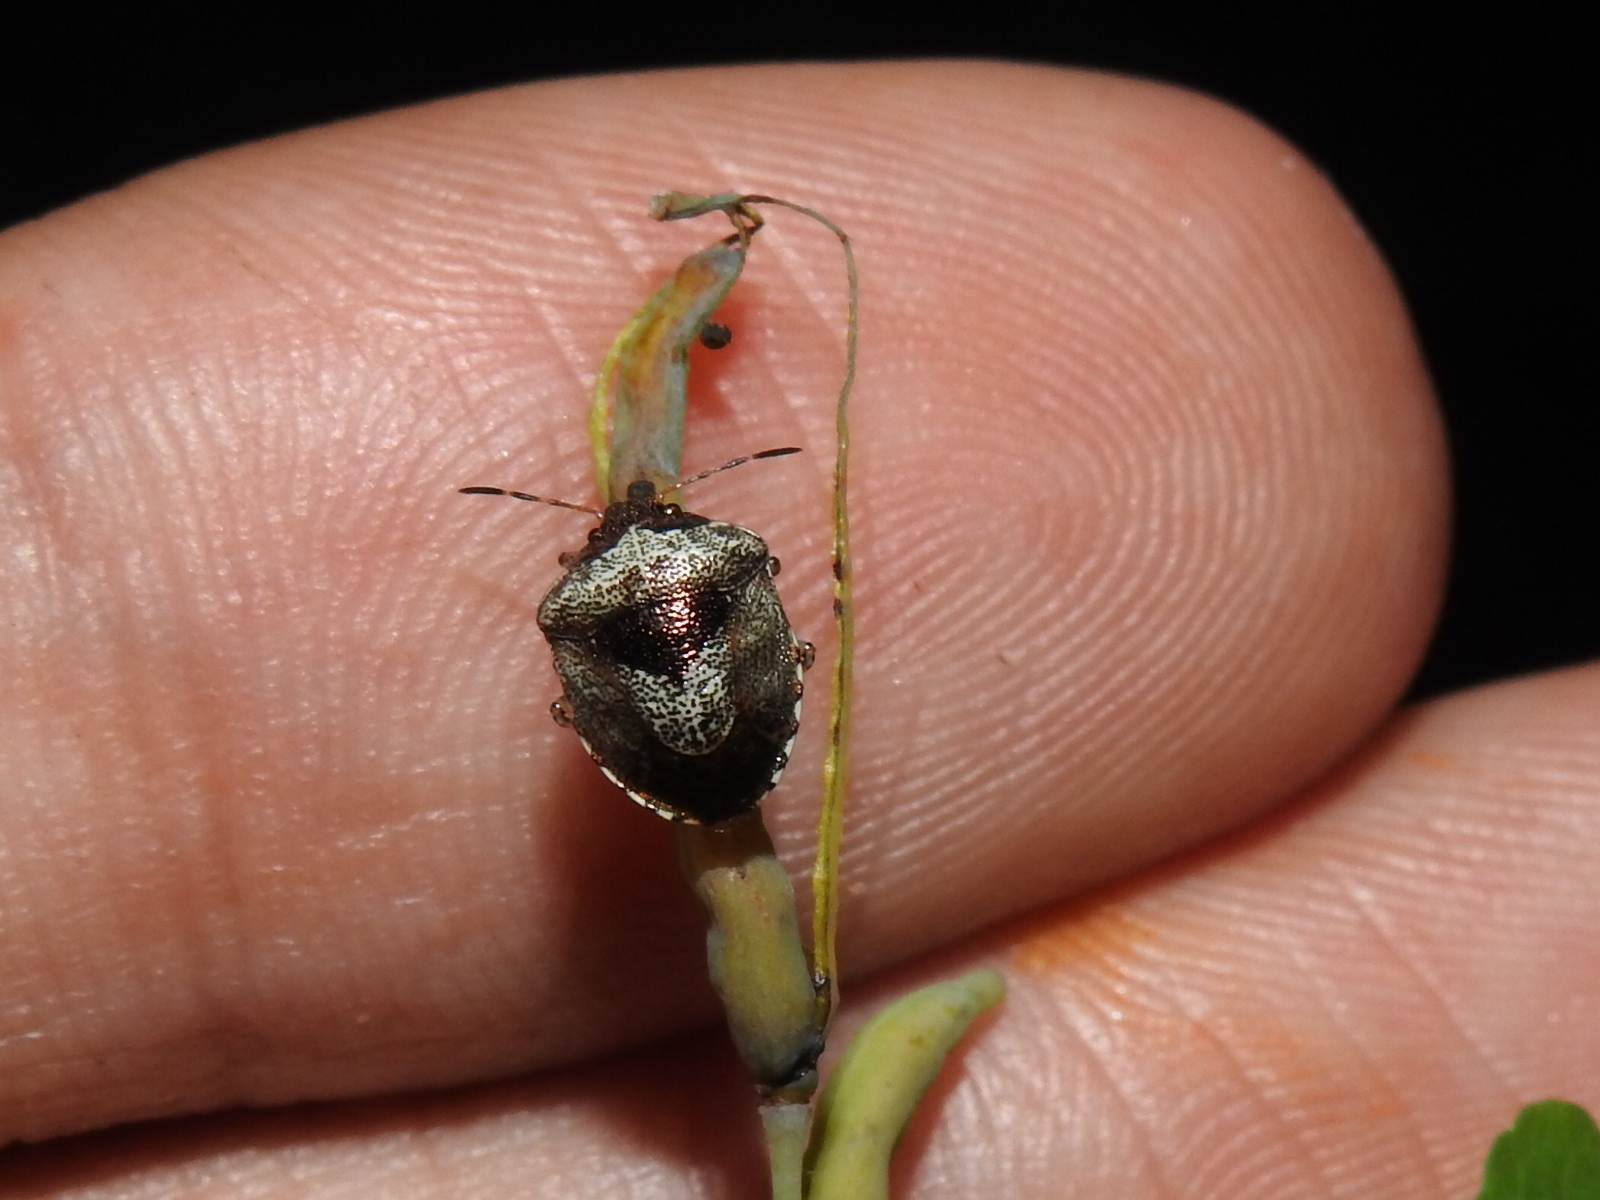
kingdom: Animalia
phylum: Arthropoda
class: Insecta
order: Hemiptera
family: Pentatomidae
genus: Eysarcoris
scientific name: Eysarcoris venustissimus
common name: Woundwort shieldbug
